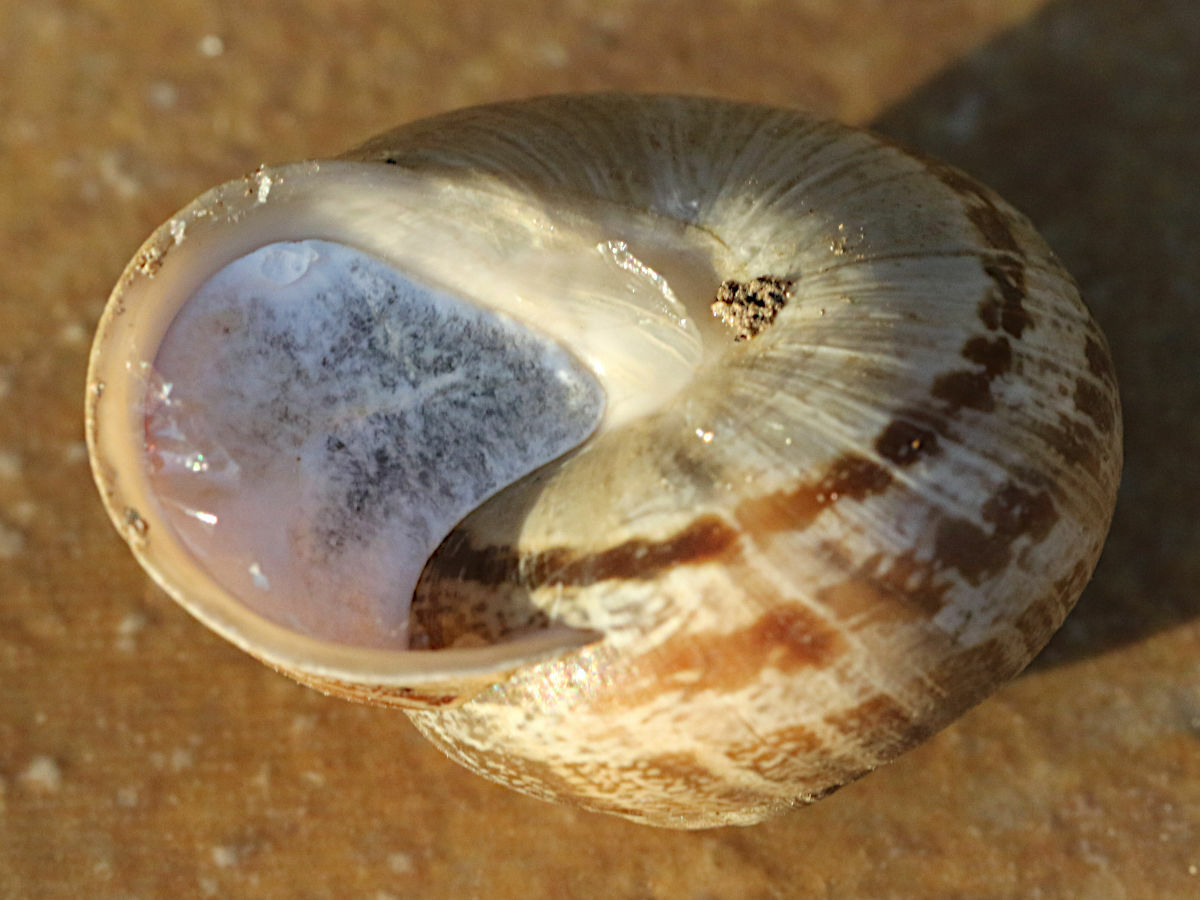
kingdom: Animalia
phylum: Mollusca
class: Gastropoda
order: Stylommatophora
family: Helicidae
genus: Eobania
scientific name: Eobania vermiculata
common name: Chocolateband snail
